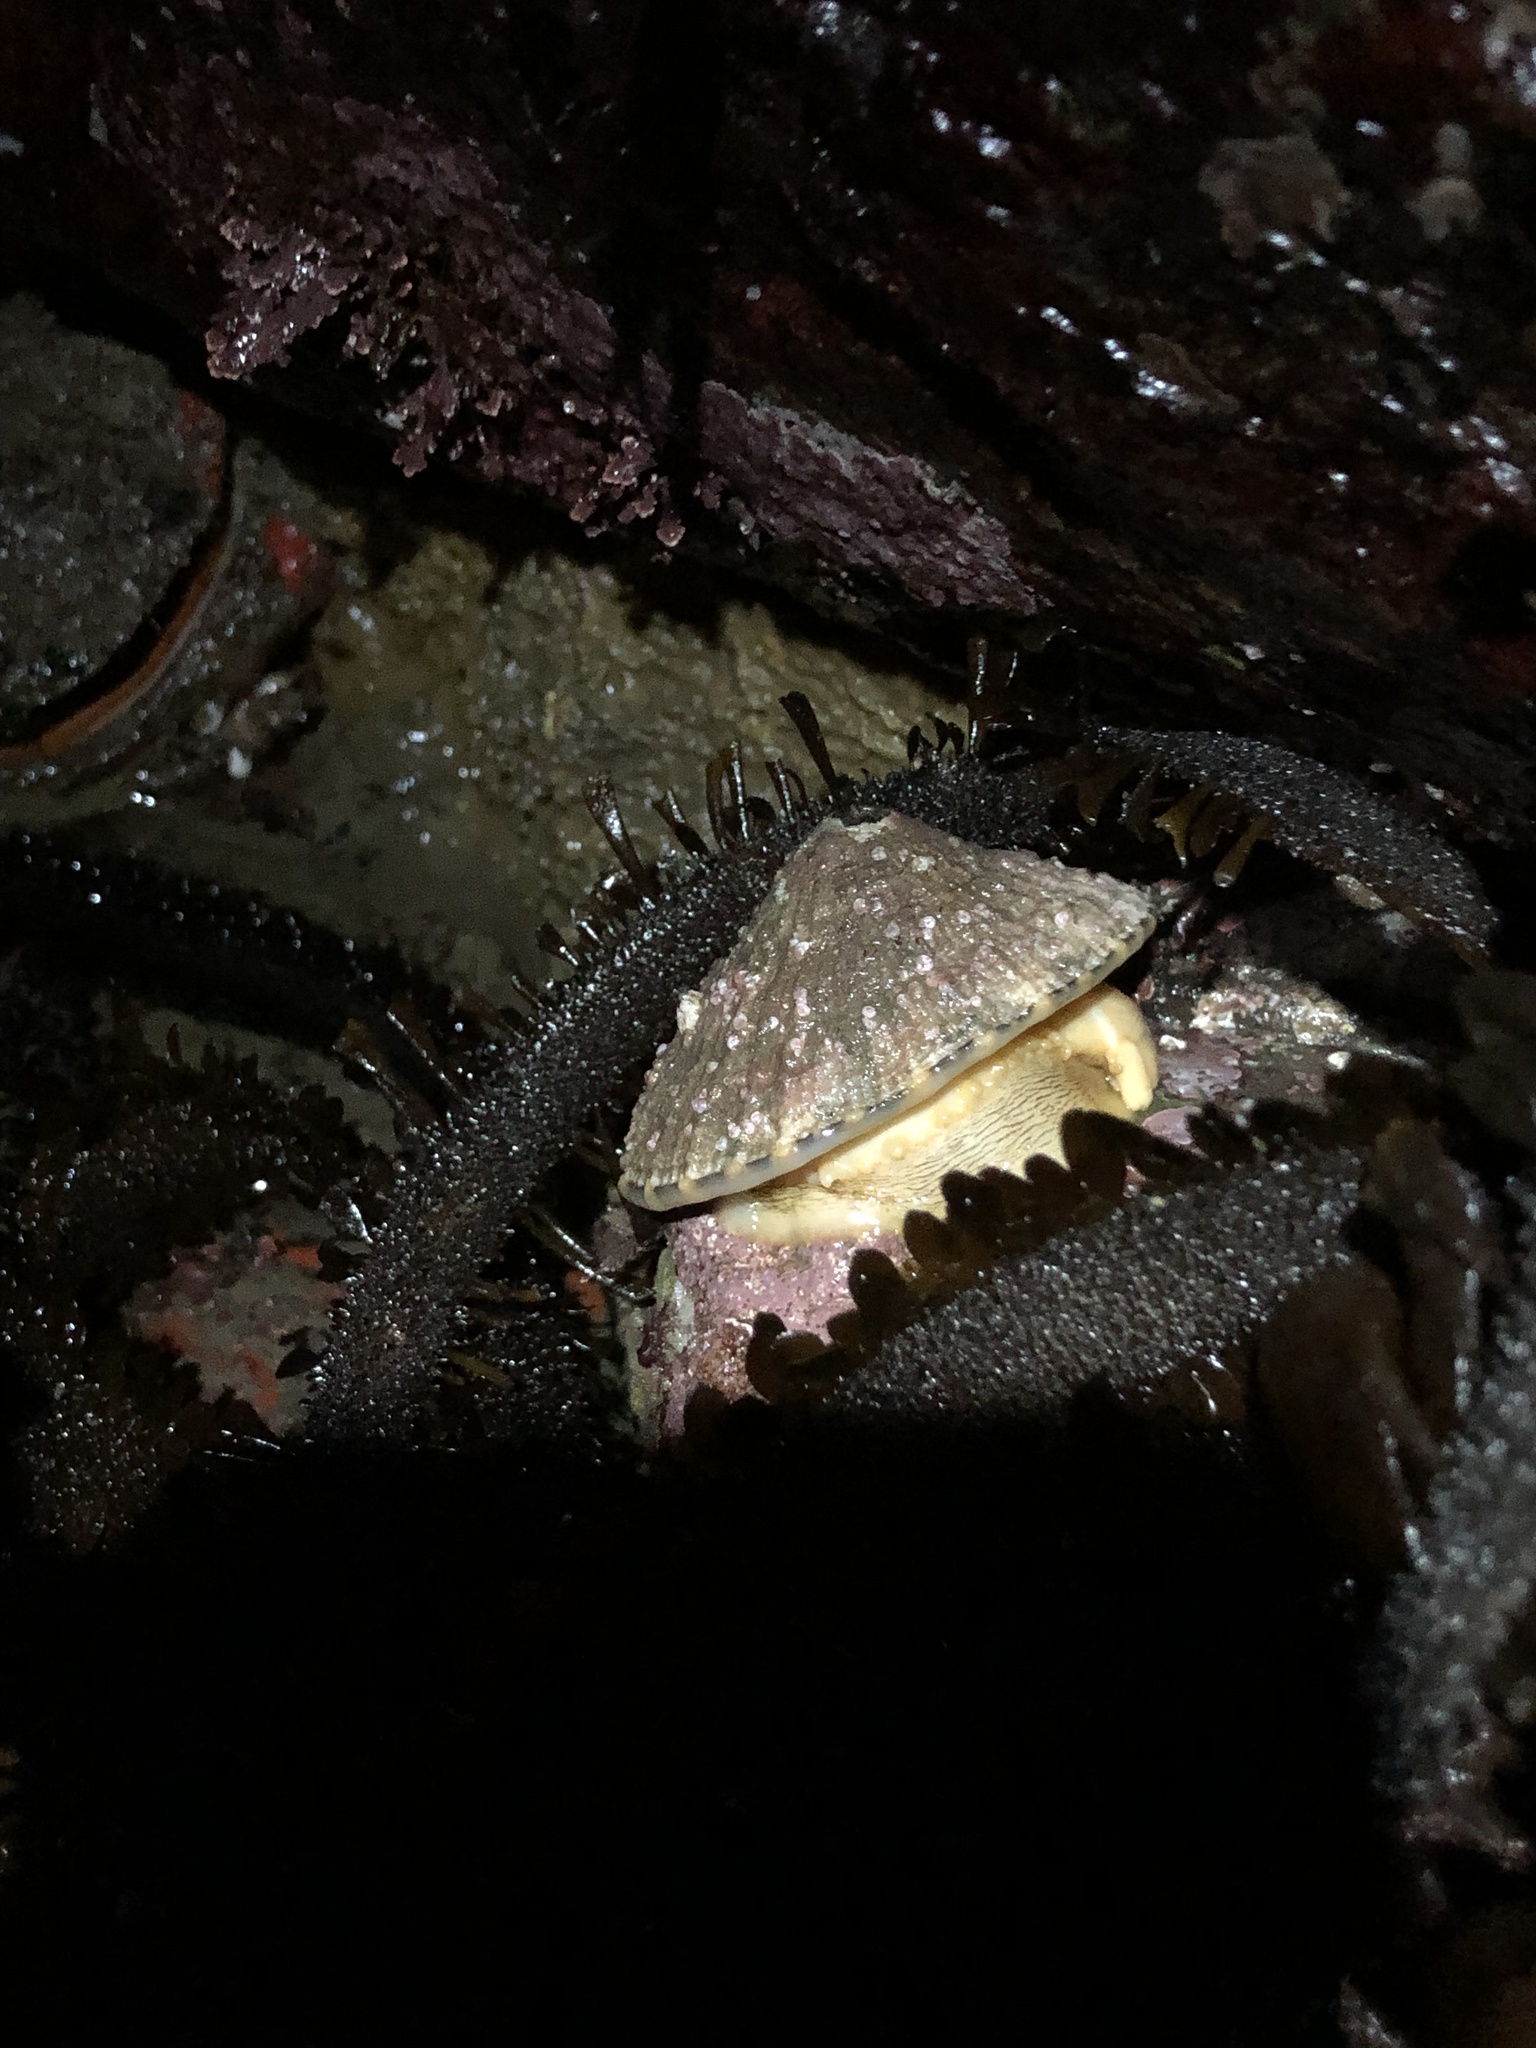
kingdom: Animalia
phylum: Mollusca
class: Gastropoda
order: Lepetellida
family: Fissurellidae
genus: Diodora
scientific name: Diodora aspera
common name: Rough keyhole limpet
